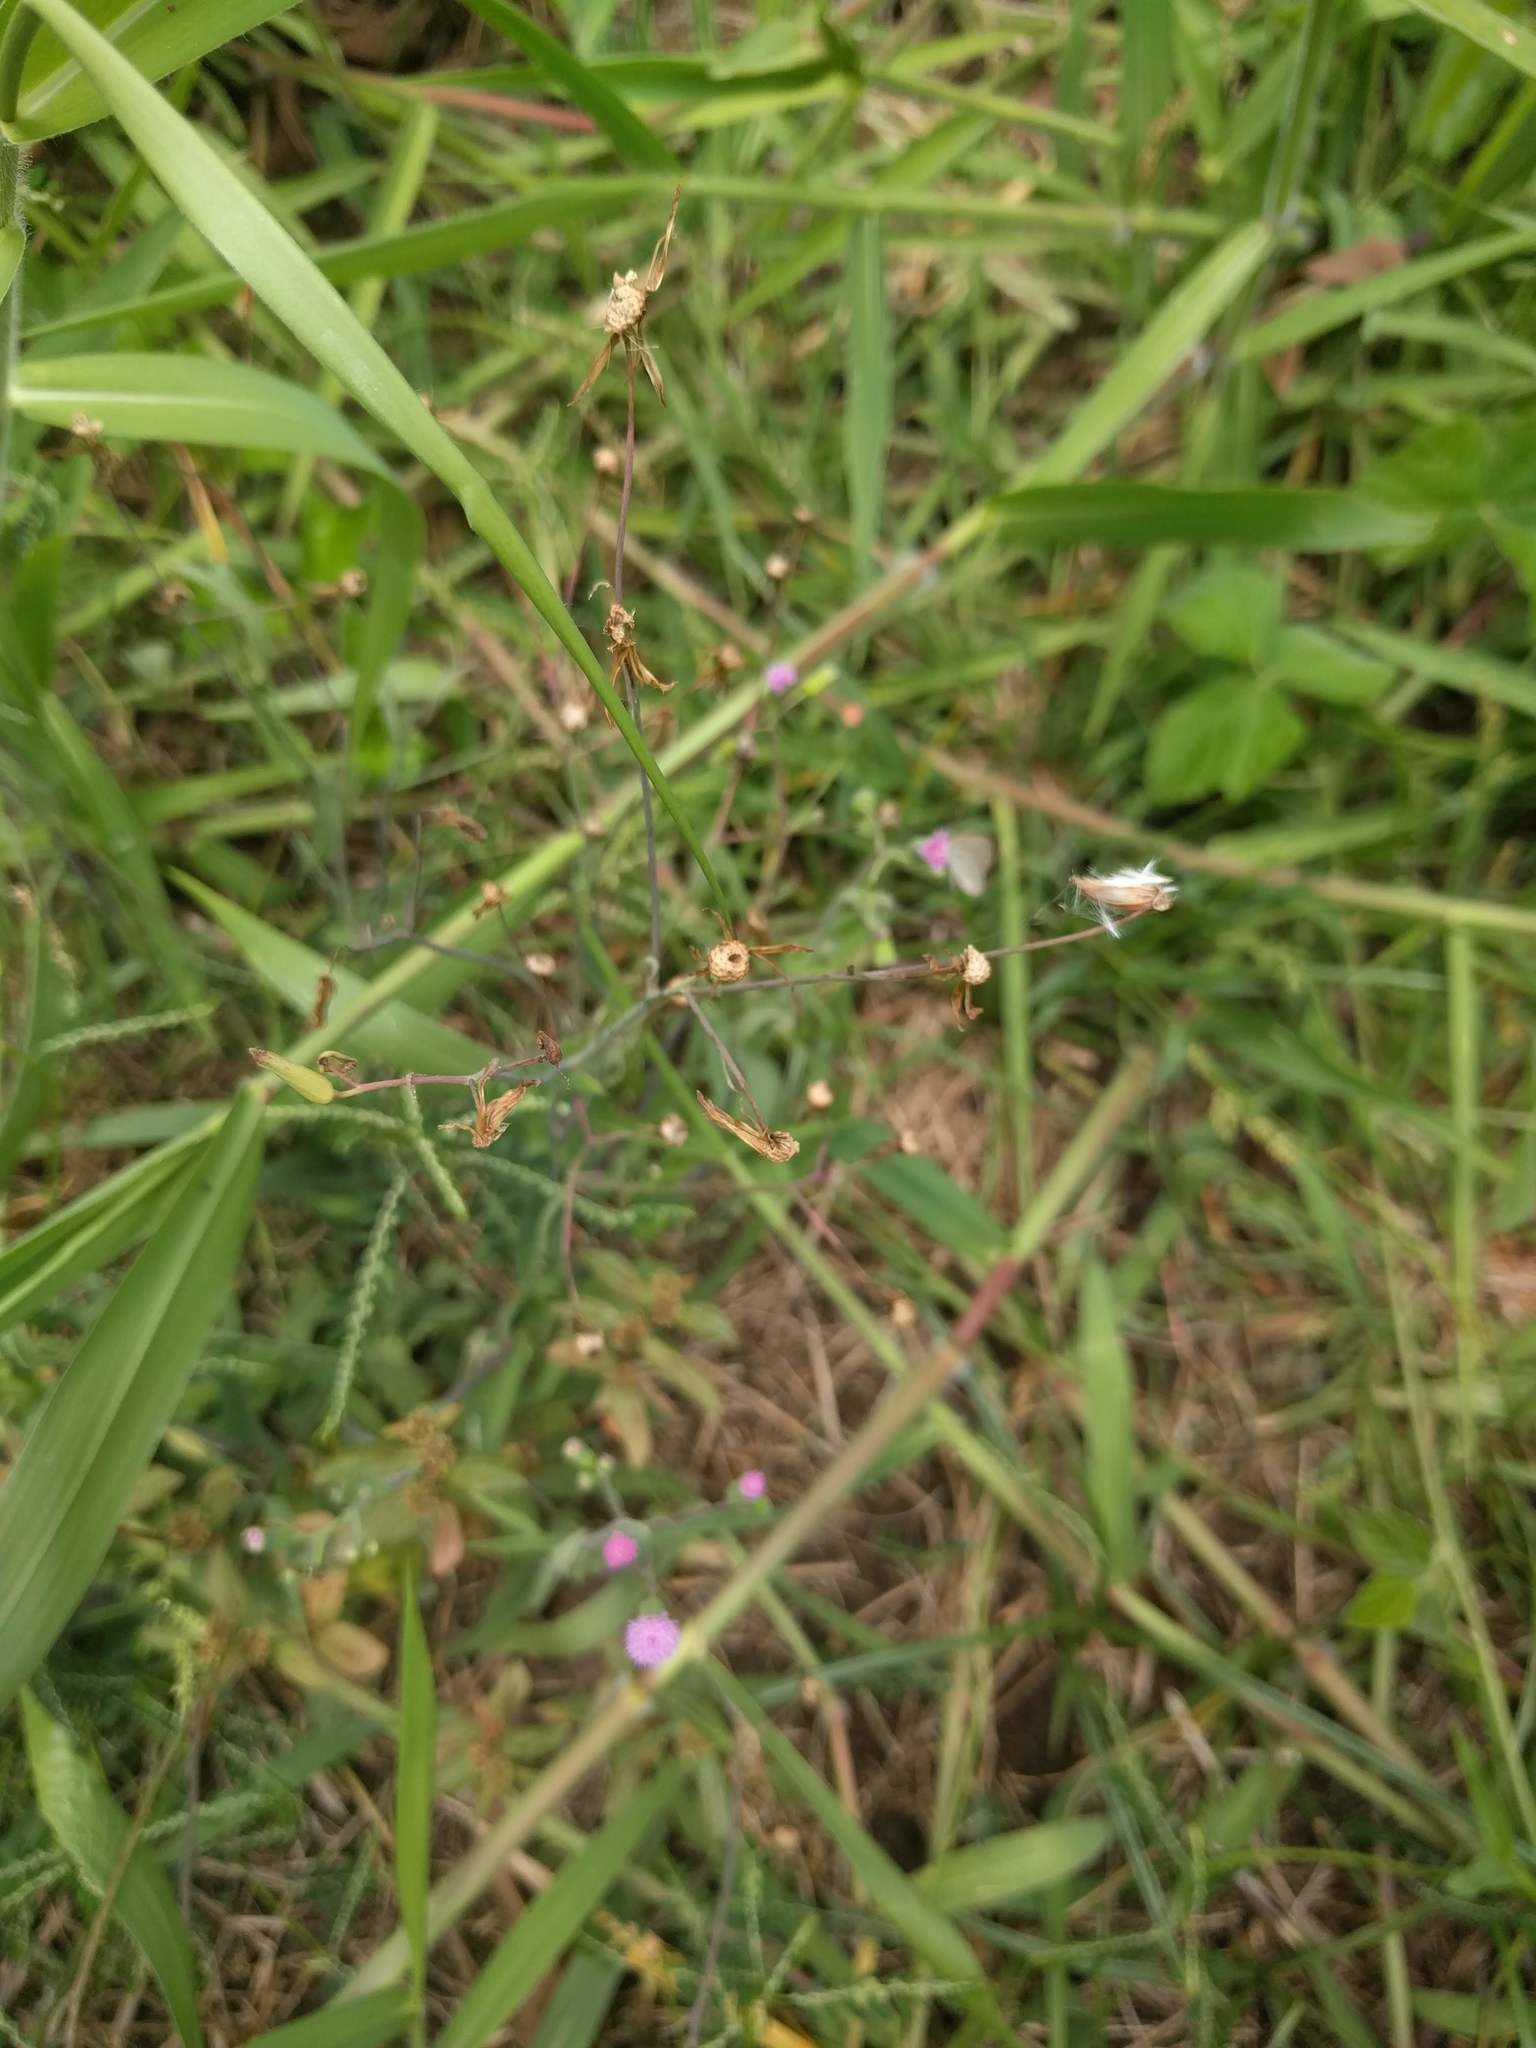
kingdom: Plantae
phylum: Tracheophyta
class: Magnoliopsida
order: Asterales
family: Asteraceae
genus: Emilia
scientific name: Emilia sonchifolia
